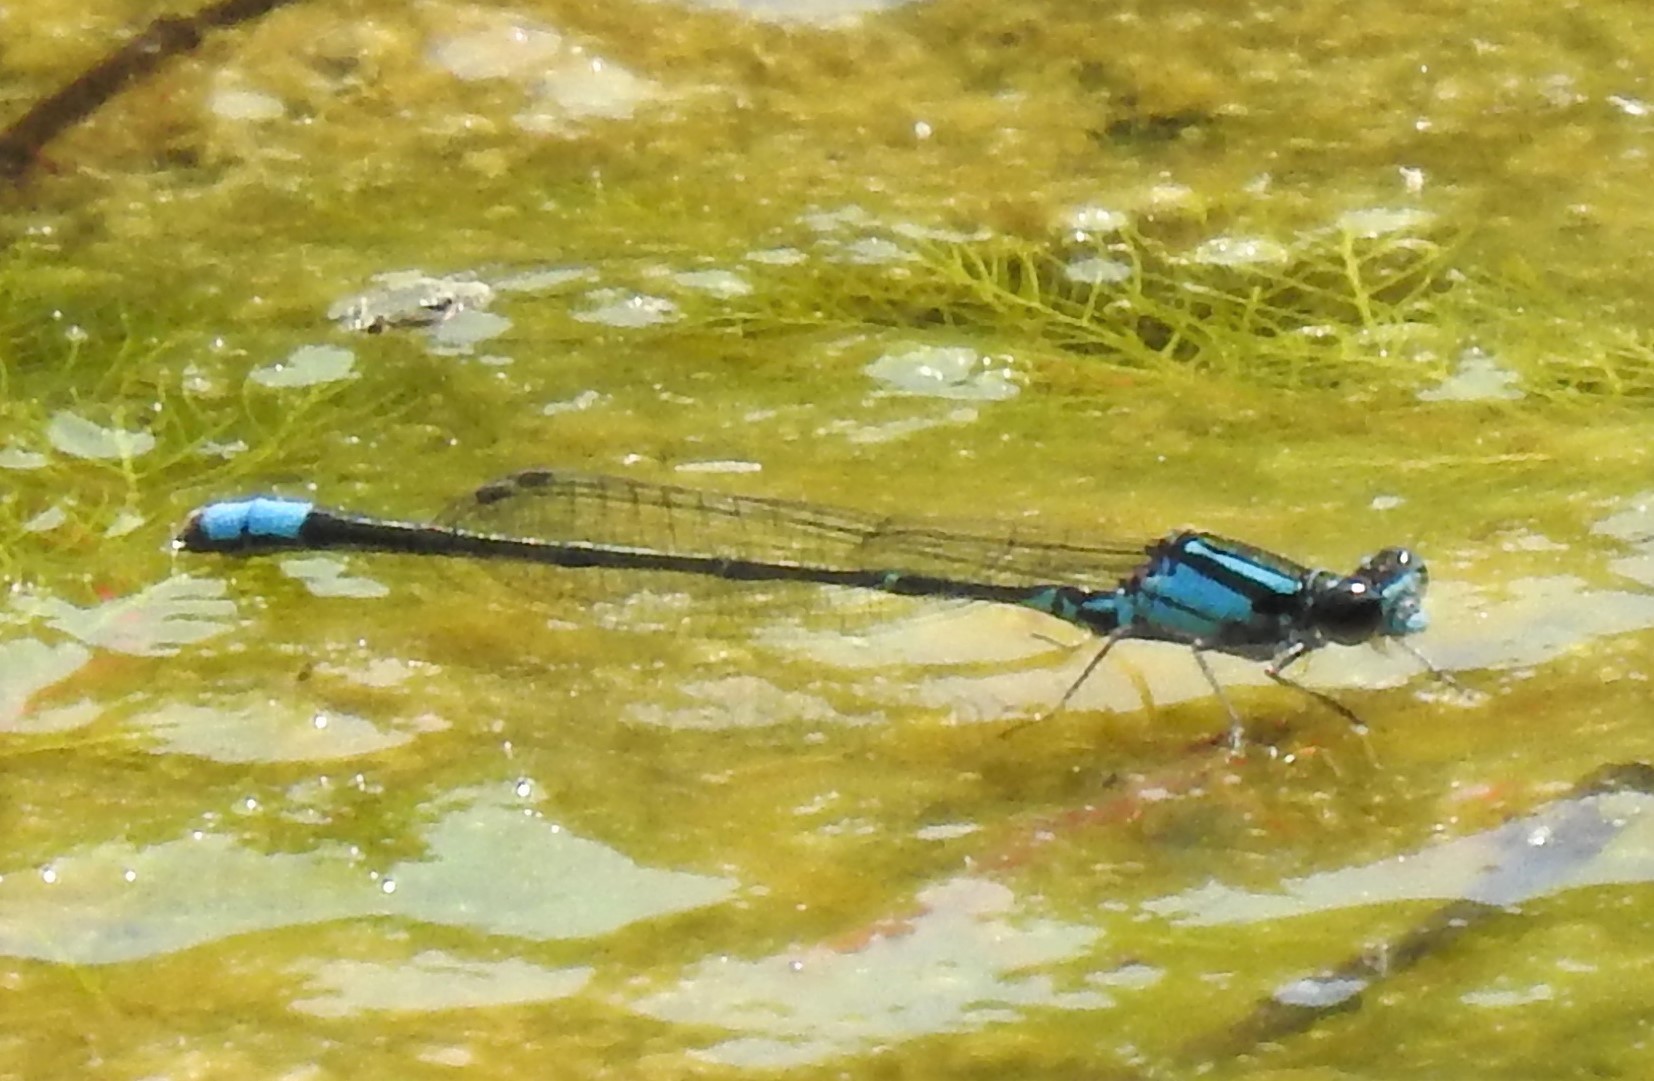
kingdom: Animalia
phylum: Arthropoda
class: Insecta
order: Odonata
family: Coenagrionidae
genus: Enallagma
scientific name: Enallagma geminatum
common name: Skimming bluet
